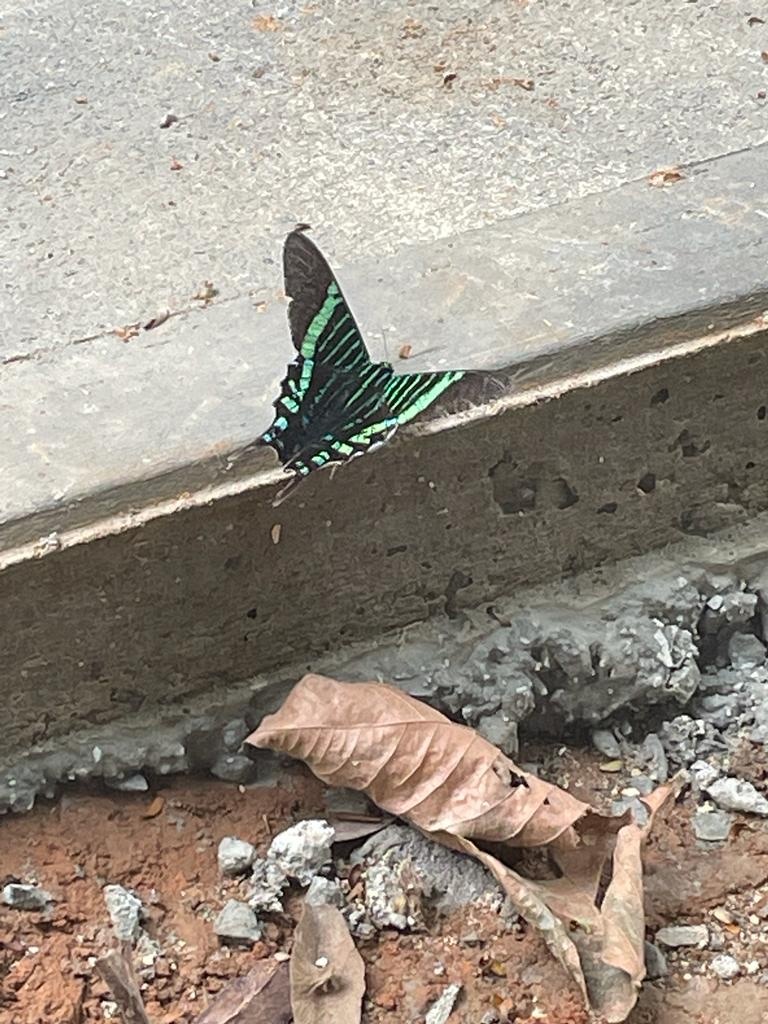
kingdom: Animalia
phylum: Arthropoda
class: Insecta
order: Lepidoptera
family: Uraniidae
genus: Urania
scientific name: Urania fulgens
